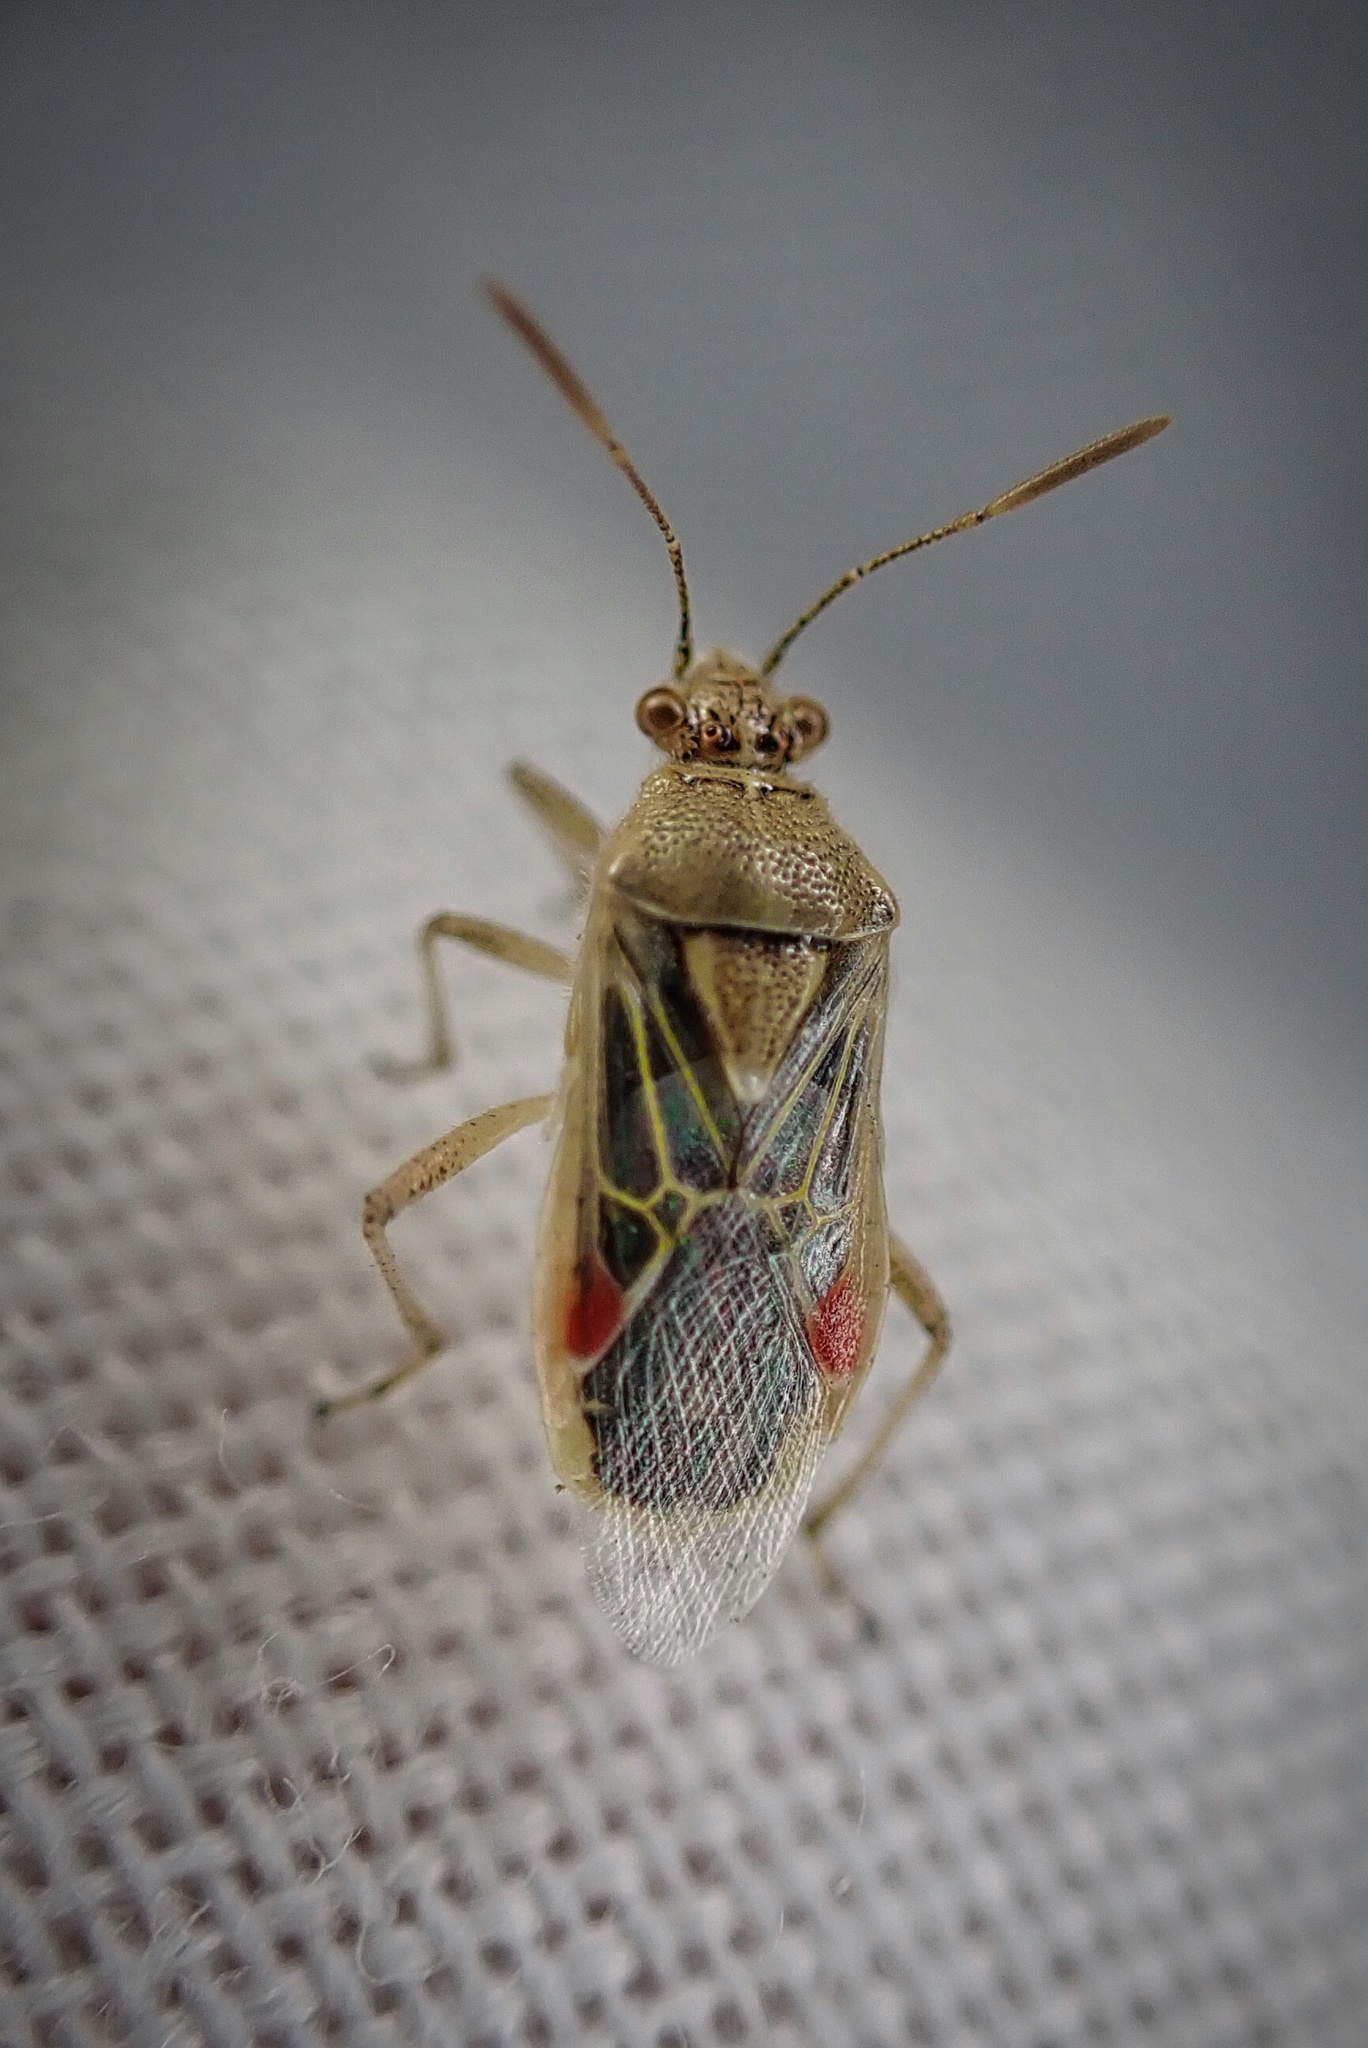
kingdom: Animalia
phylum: Arthropoda
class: Insecta
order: Hemiptera
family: Rhopalidae
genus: Liorhyssus
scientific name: Liorhyssus hyalinus
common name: Scentless plant bug
